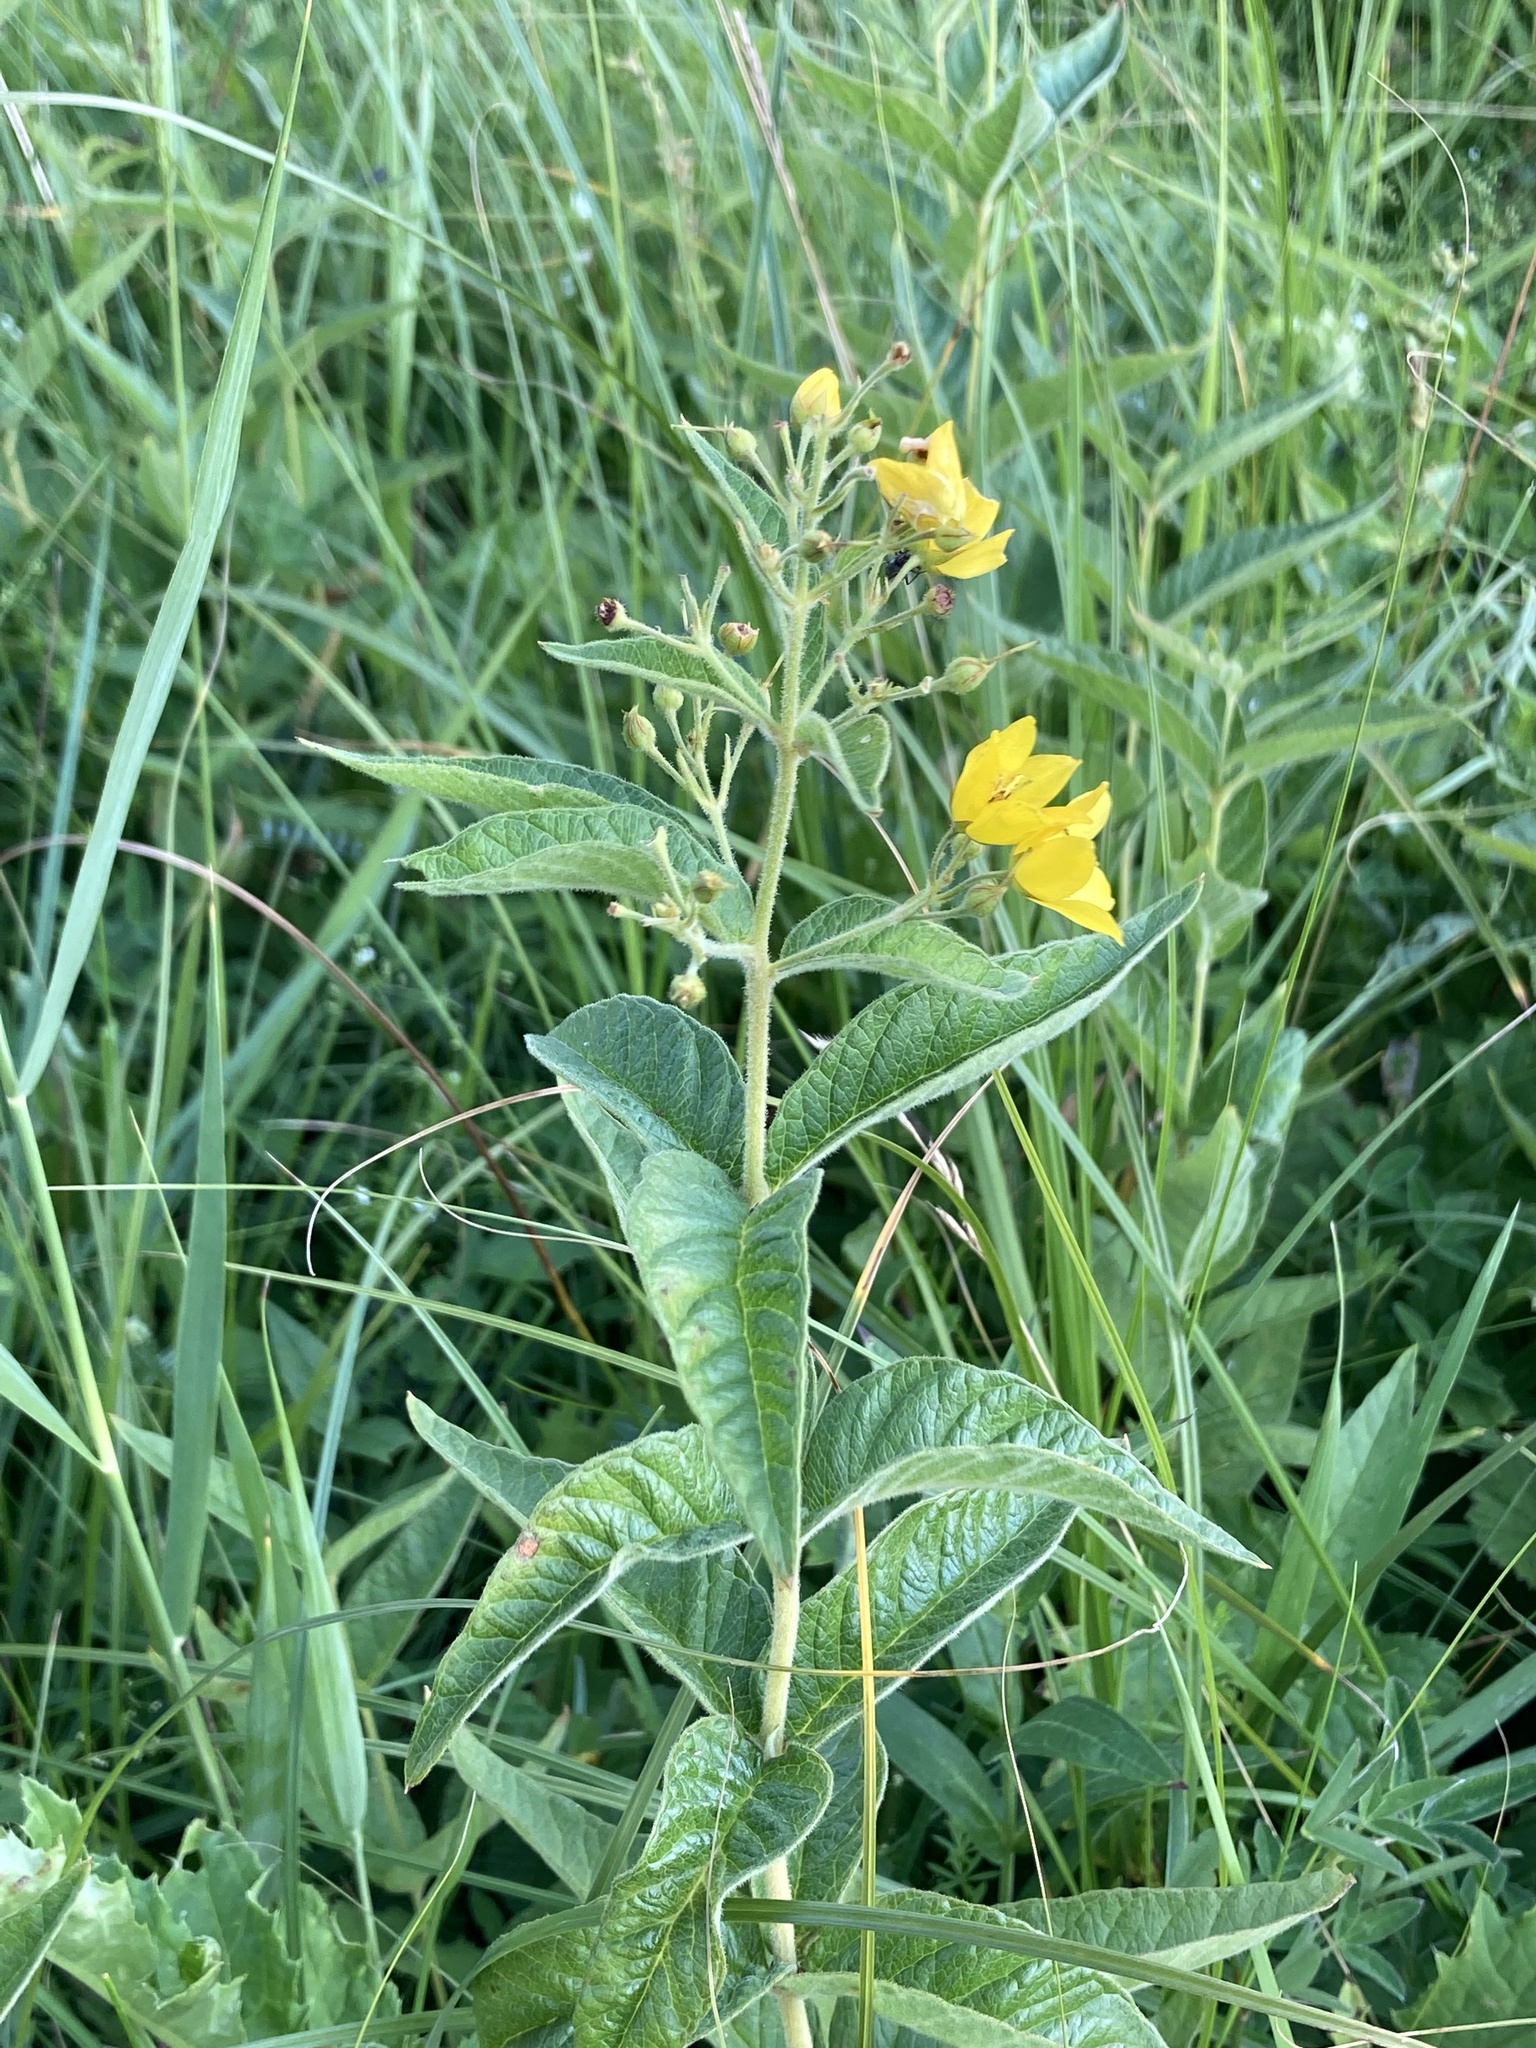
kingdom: Plantae
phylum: Tracheophyta
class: Magnoliopsida
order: Ericales
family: Primulaceae
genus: Lysimachia
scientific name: Lysimachia vulgaris
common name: Yellow loosestrife
